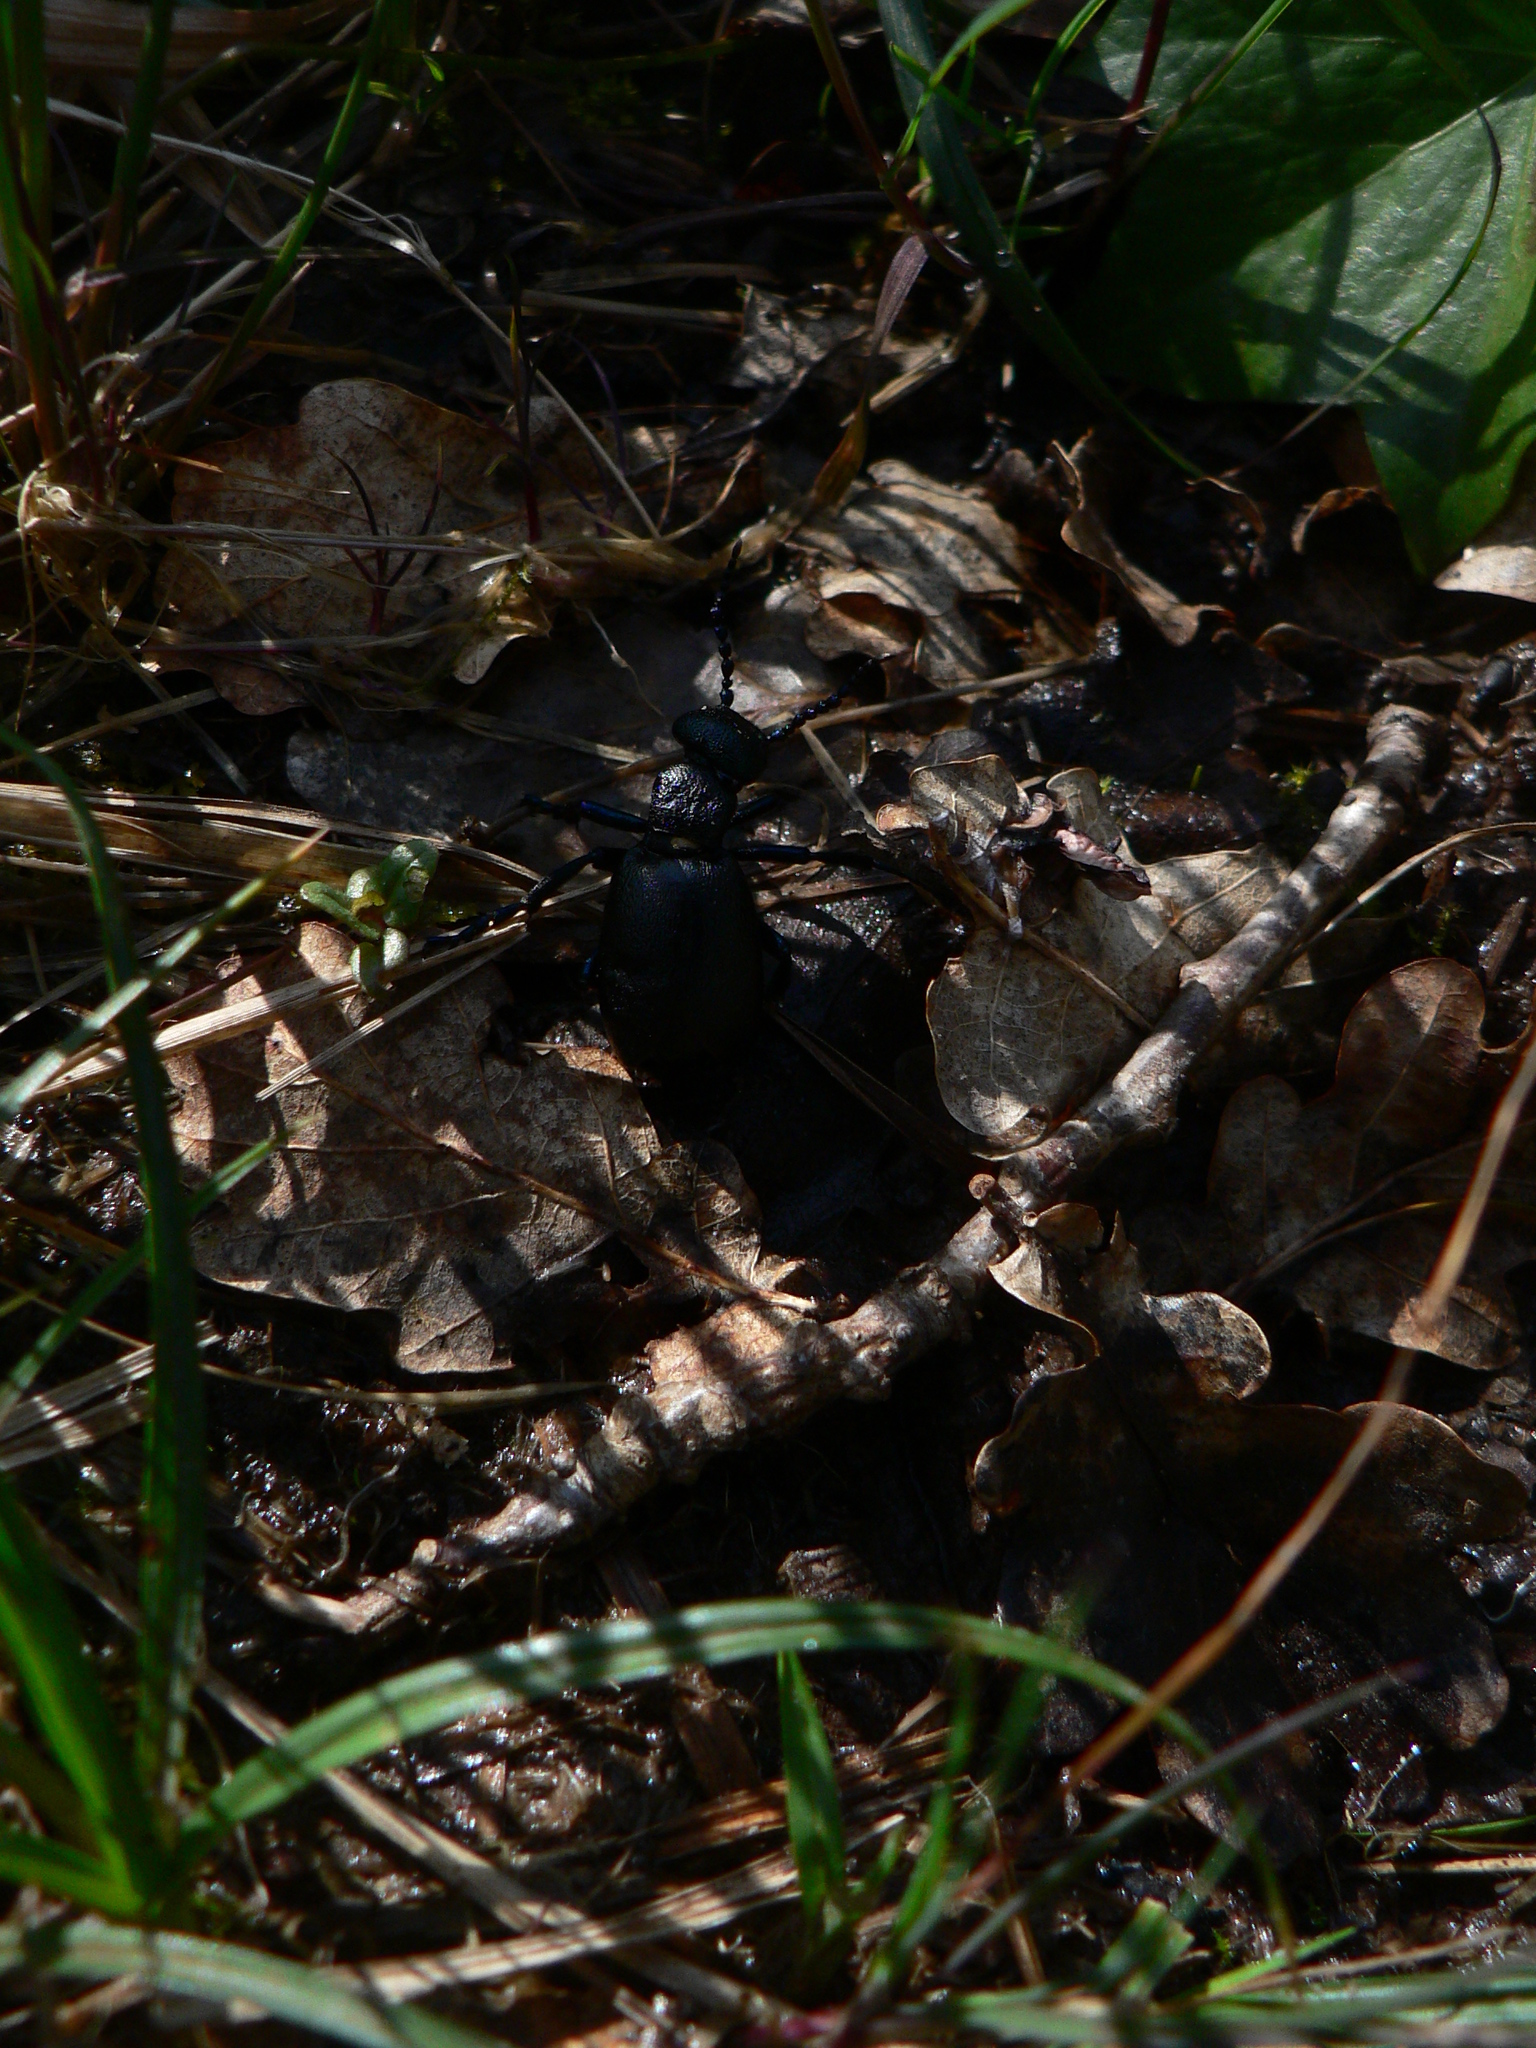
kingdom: Animalia
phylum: Arthropoda
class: Insecta
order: Coleoptera
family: Meloidae
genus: Meloe
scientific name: Meloe proscarabaeus
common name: Black oil-beetle
